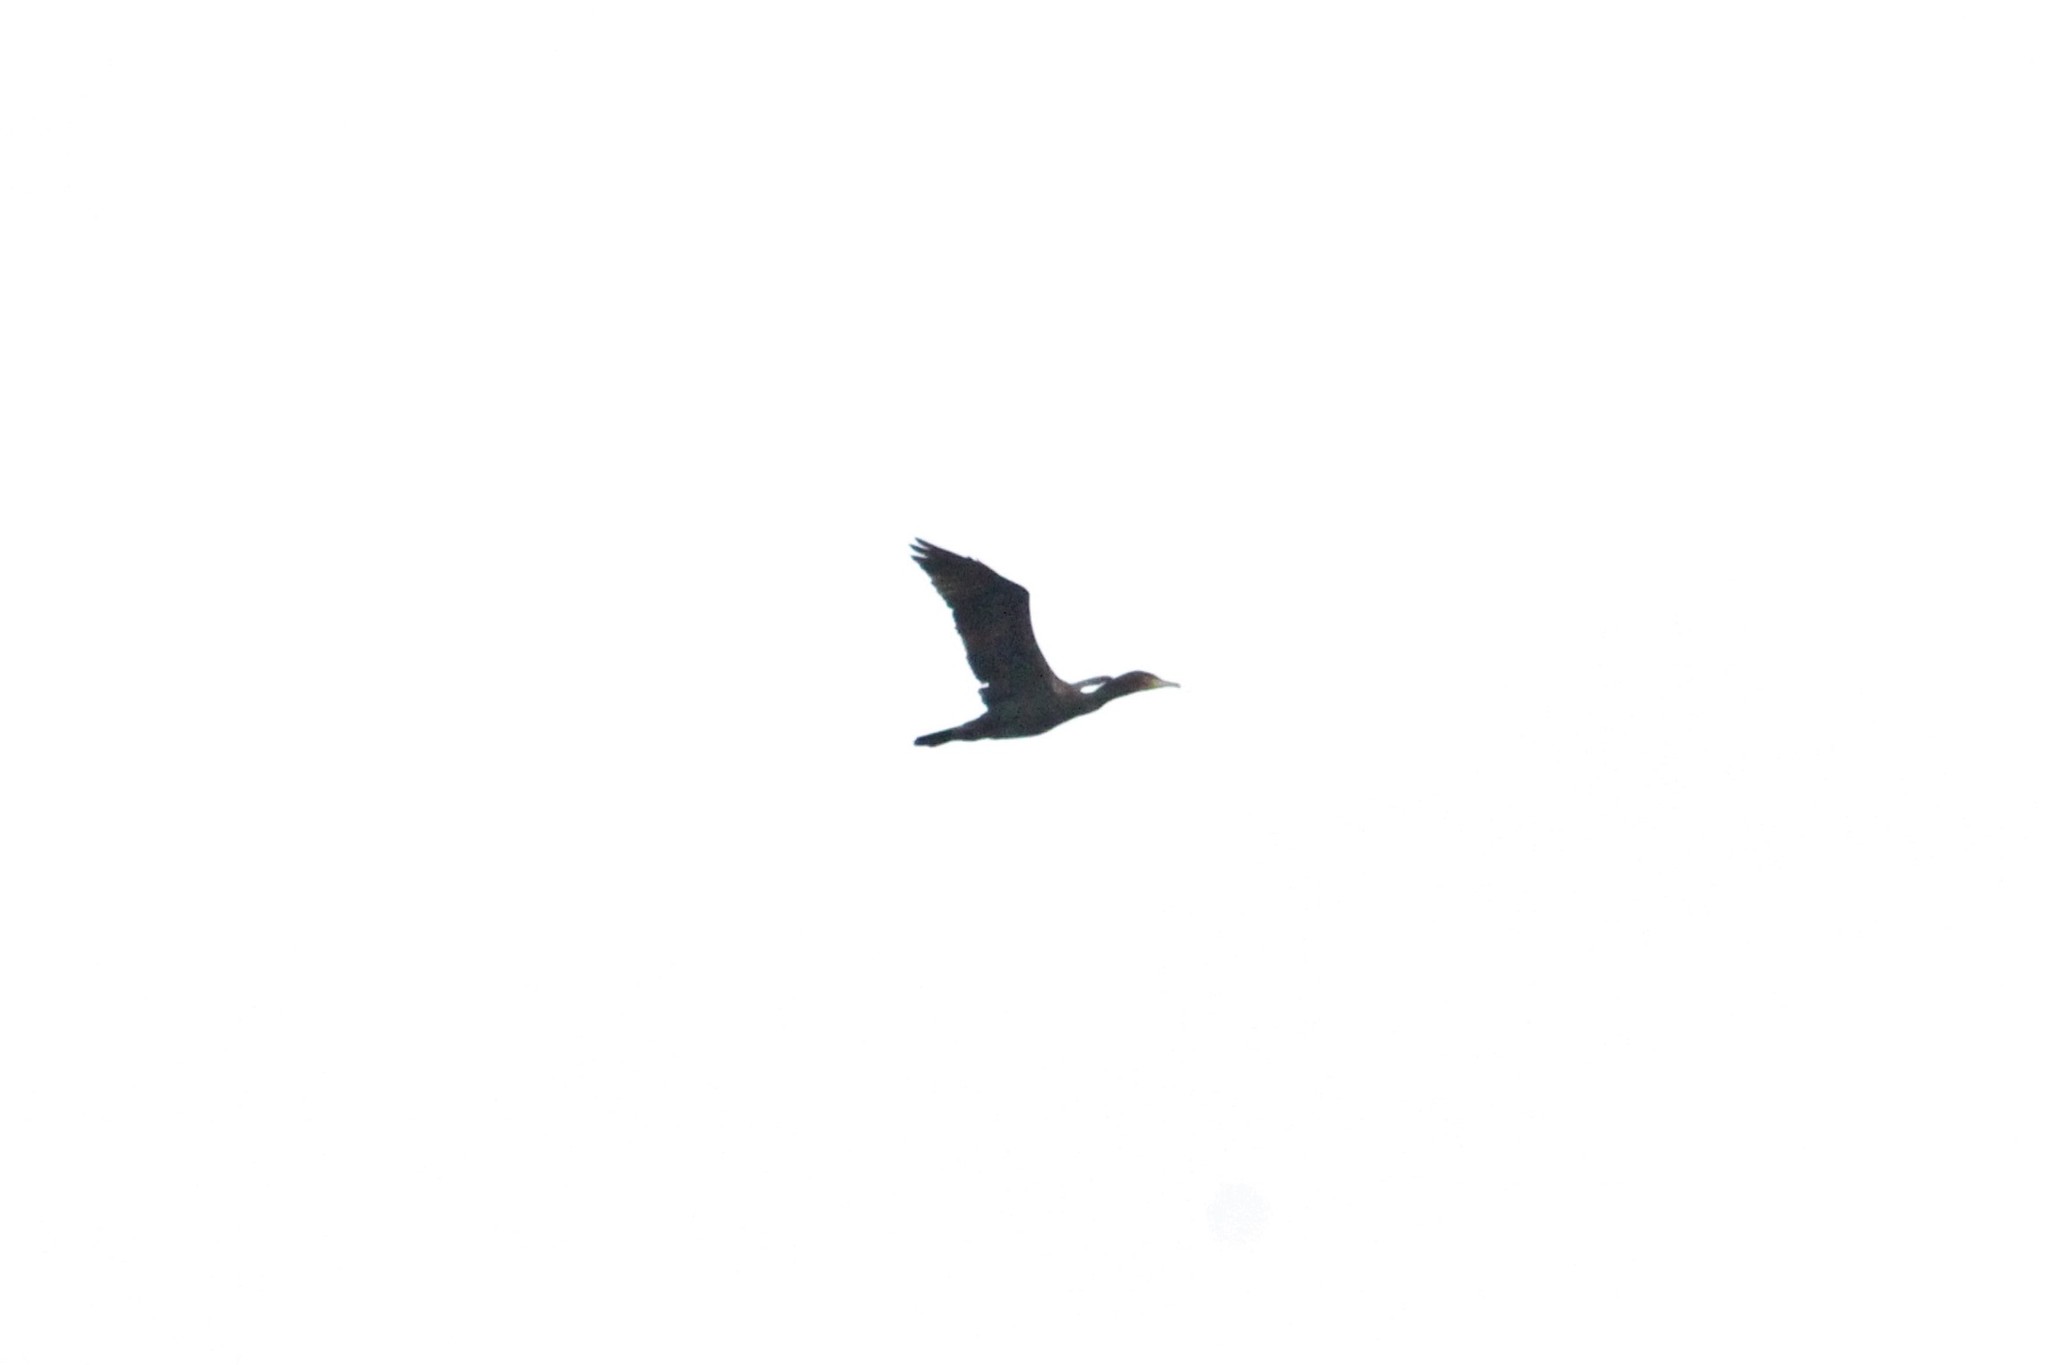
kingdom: Animalia
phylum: Chordata
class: Aves
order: Suliformes
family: Phalacrocoracidae
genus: Phalacrocorax
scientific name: Phalacrocorax carbo
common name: Great cormorant
